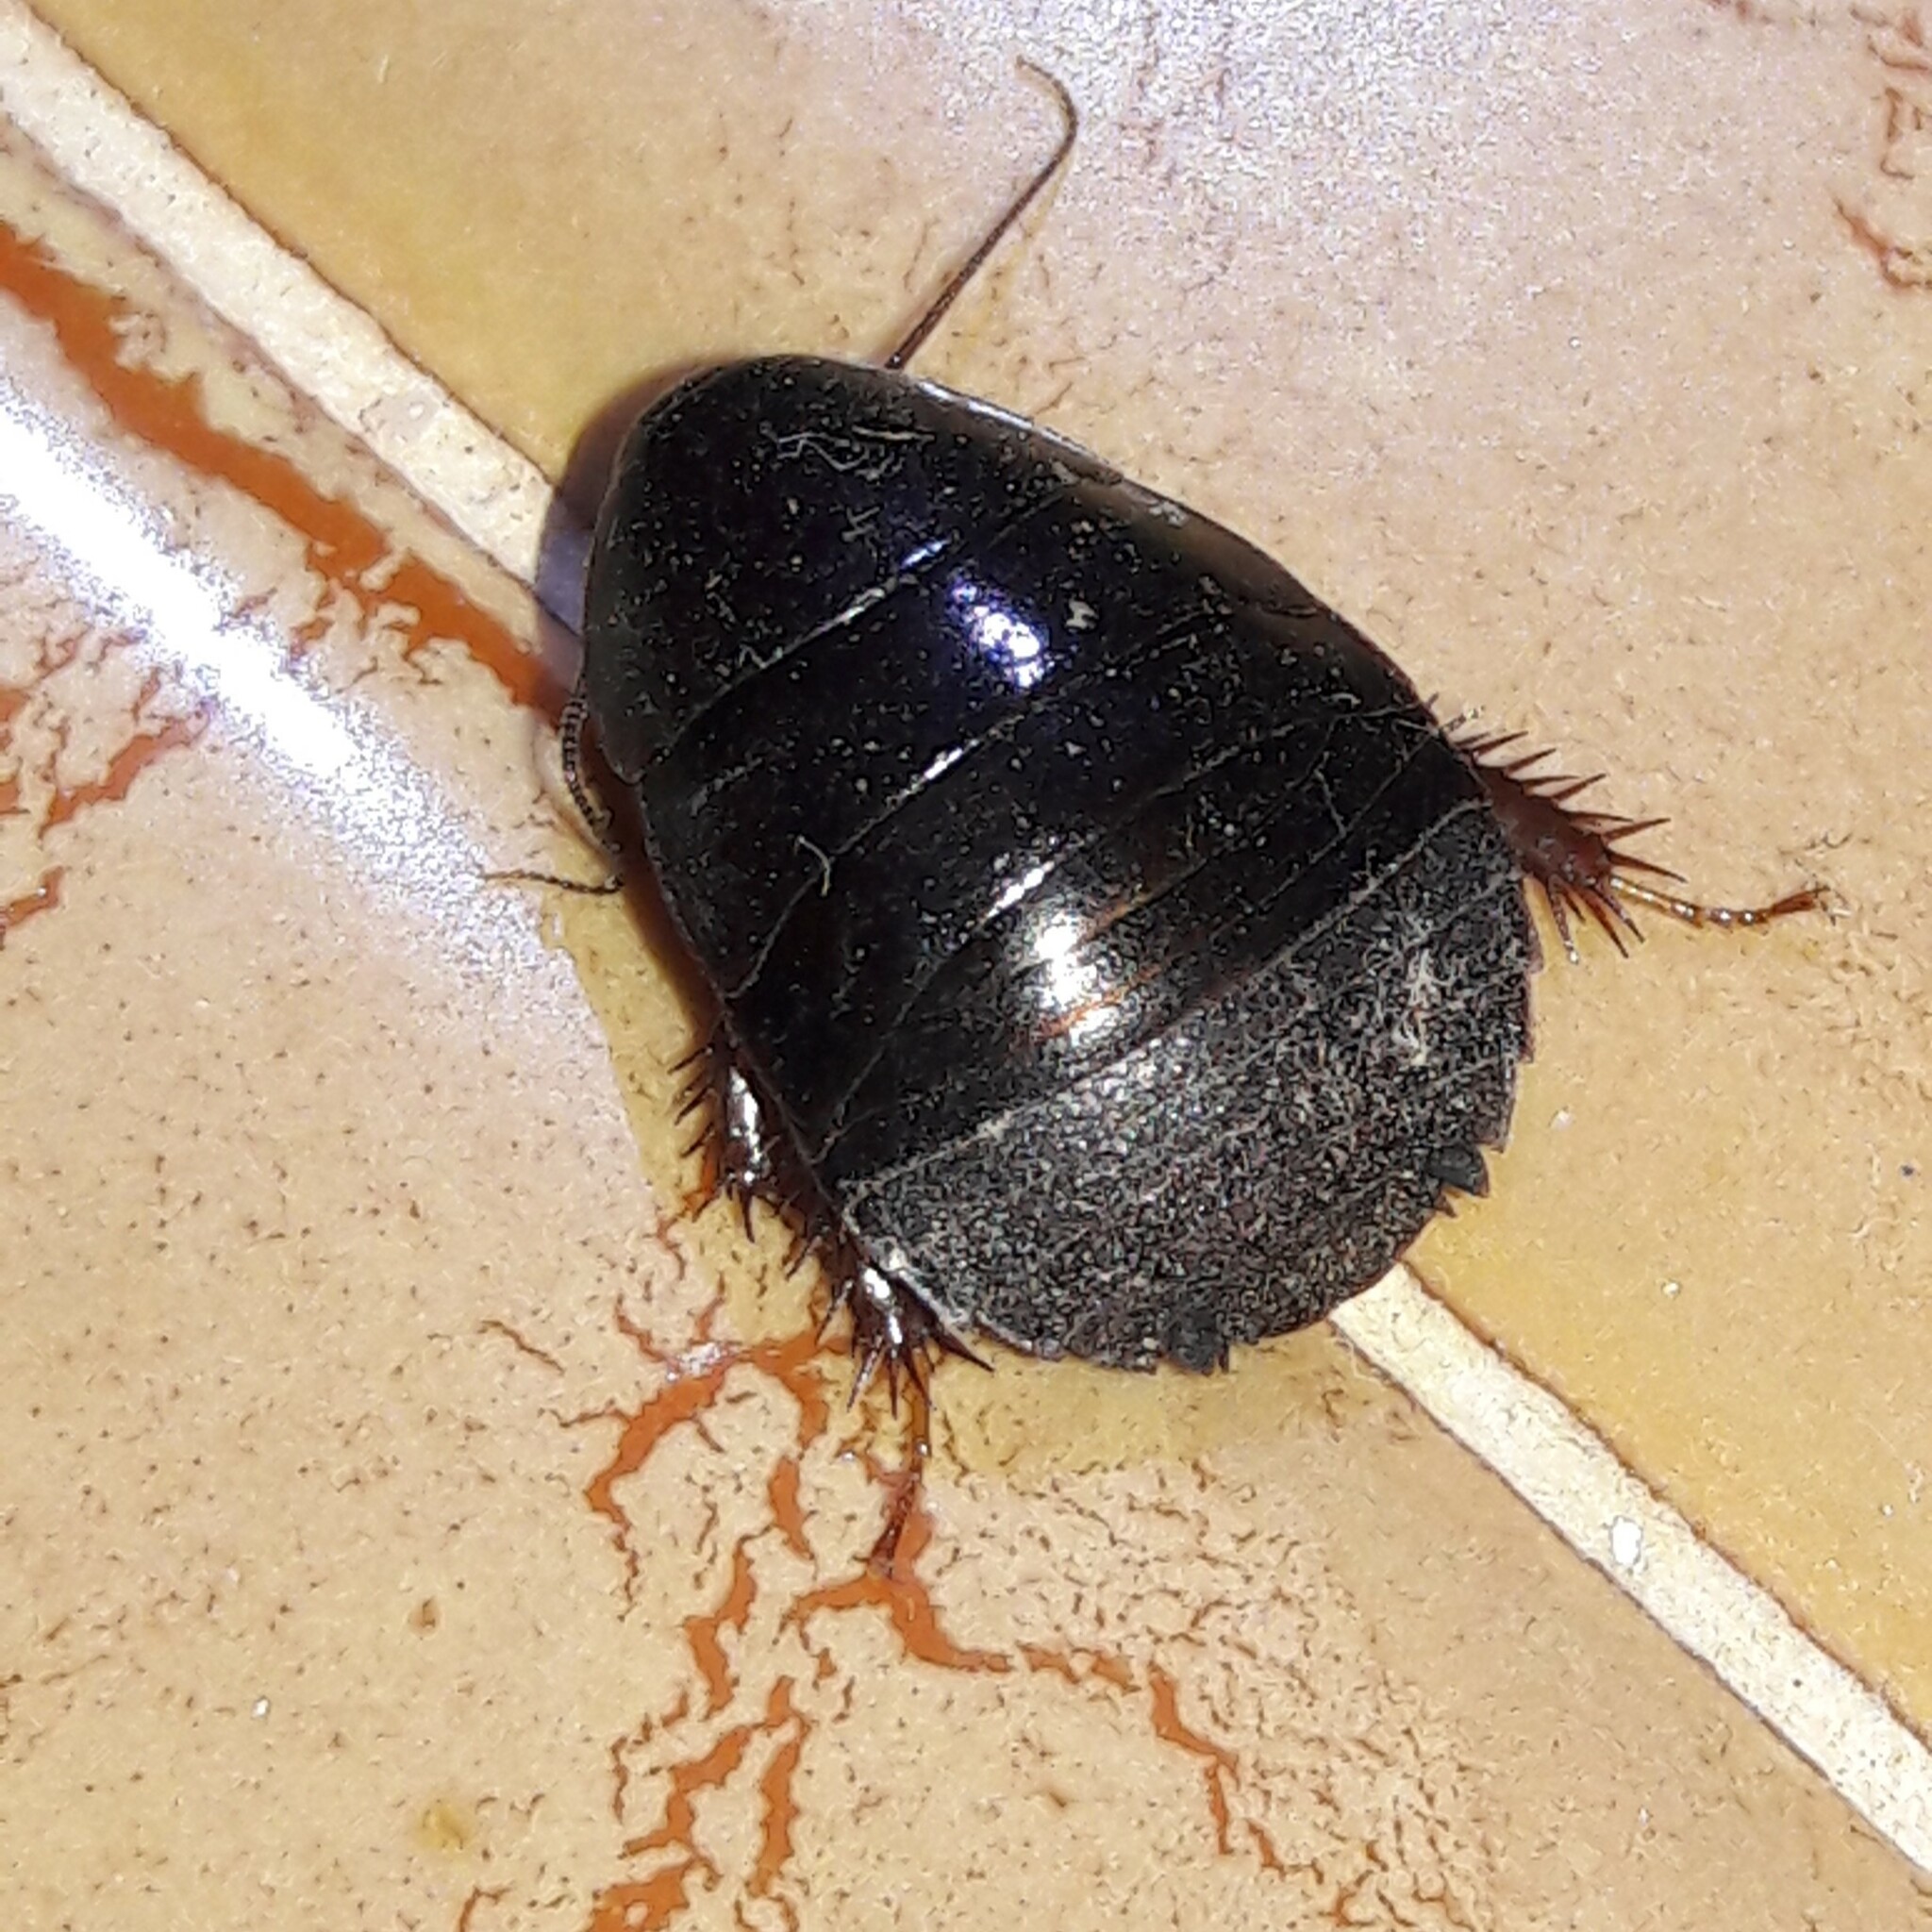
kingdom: Animalia
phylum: Arthropoda
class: Insecta
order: Blattodea
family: Blaberidae
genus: Pycnoscelus
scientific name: Pycnoscelus surinamensis
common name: Surinam cockroach
